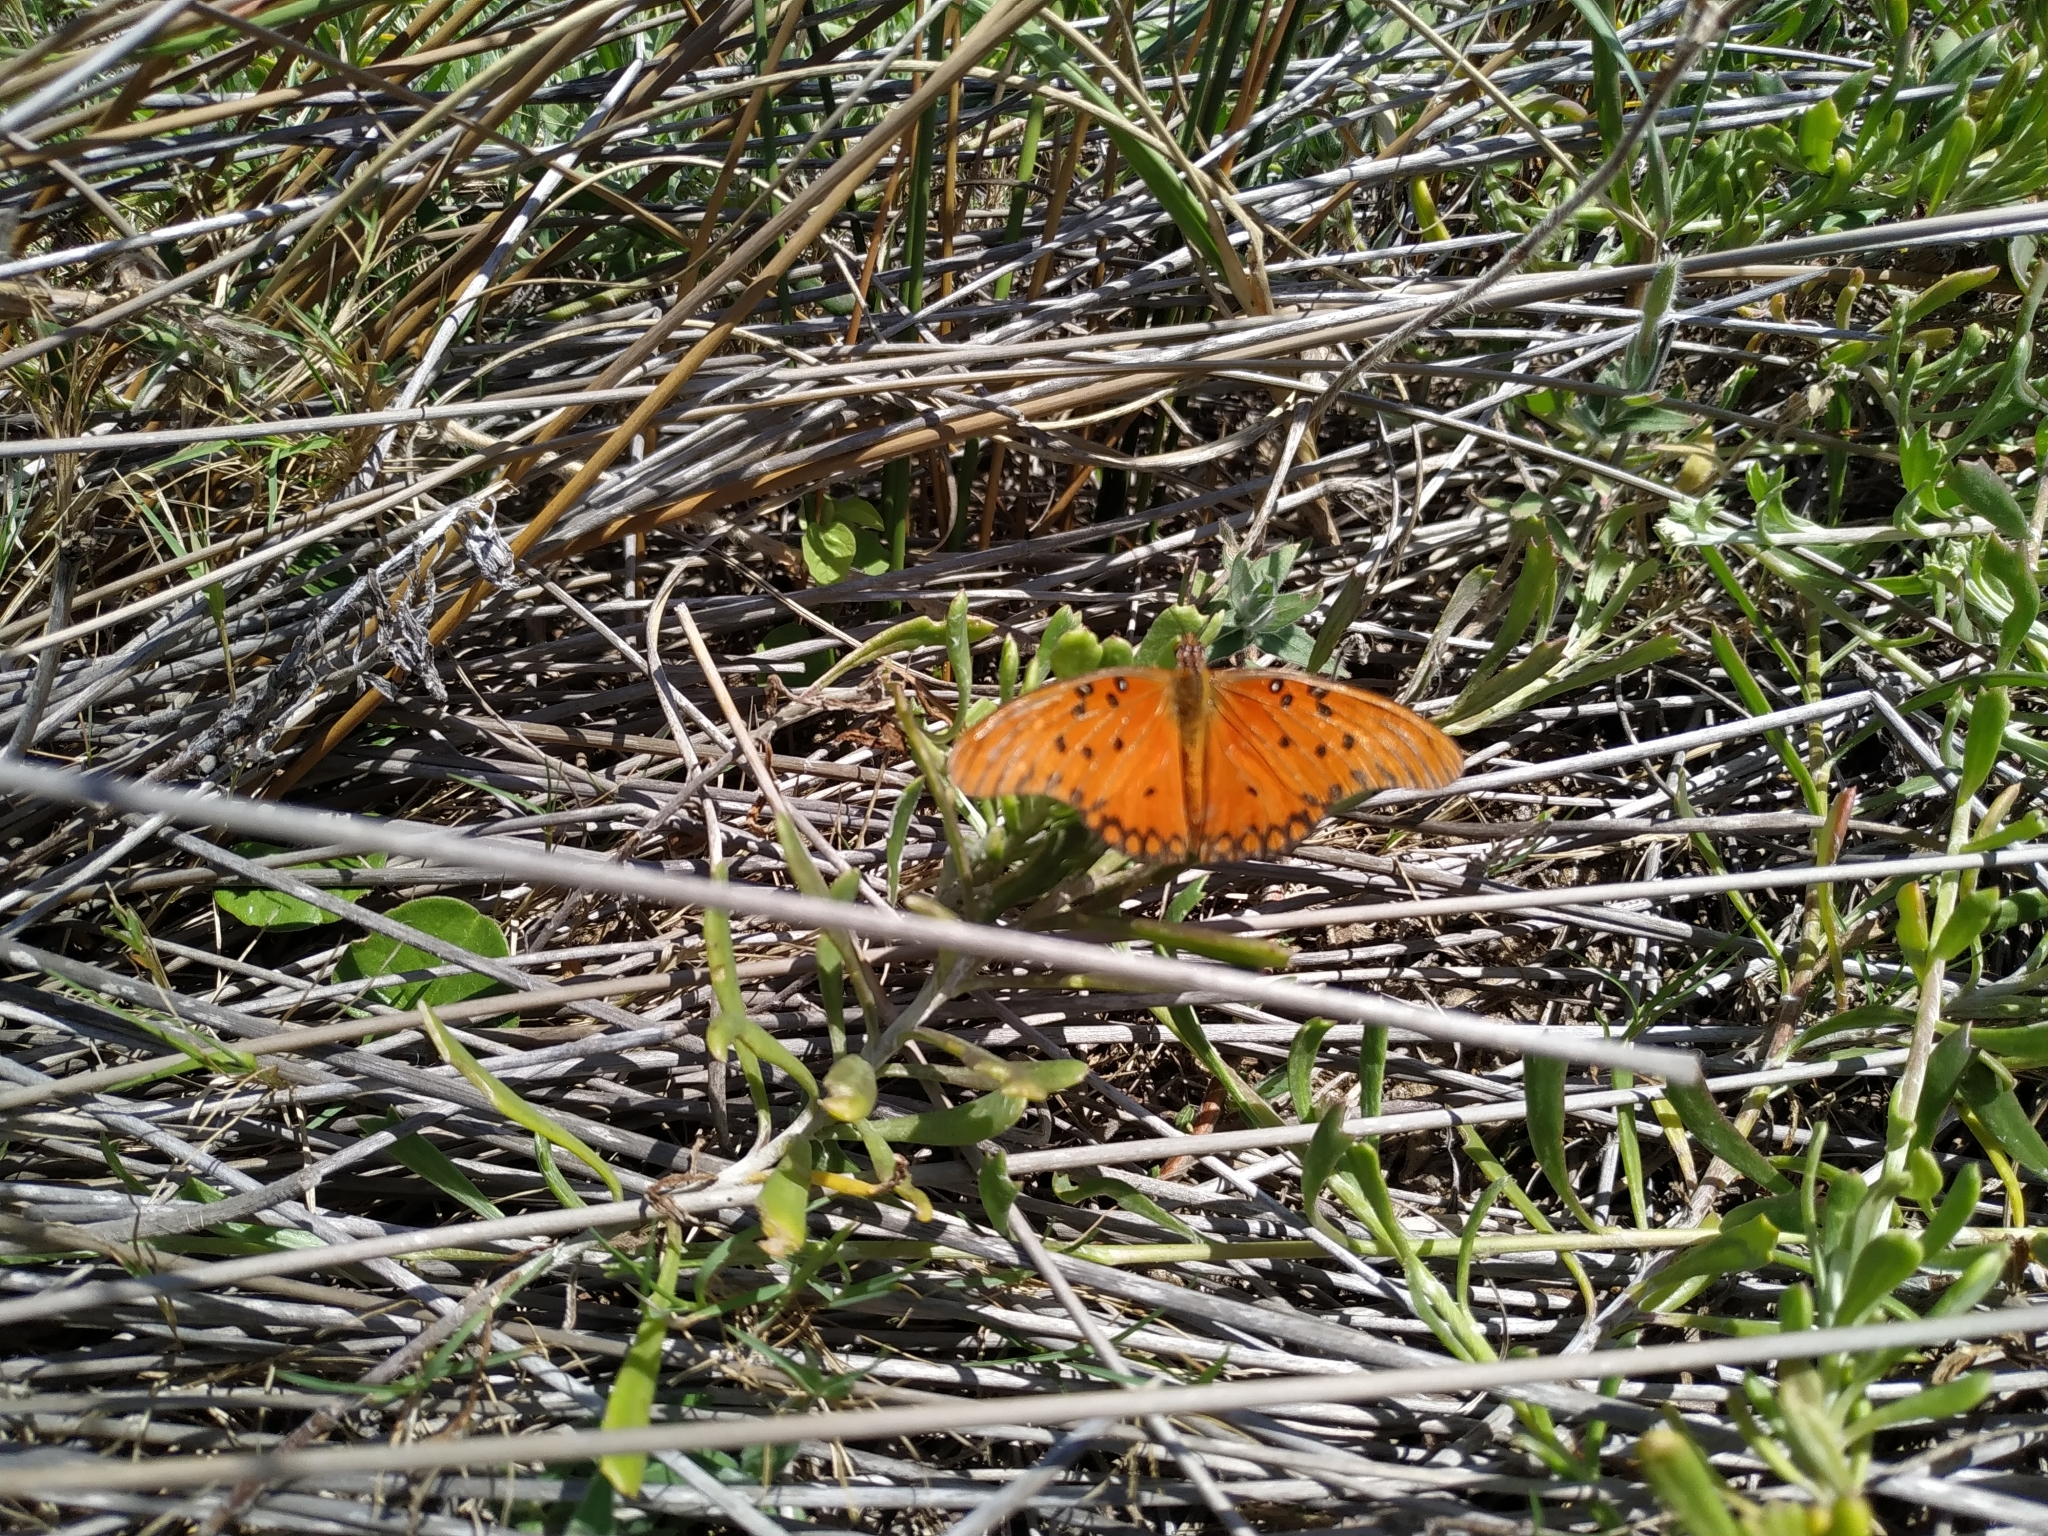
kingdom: Animalia
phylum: Arthropoda
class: Insecta
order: Lepidoptera
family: Nymphalidae
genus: Dione
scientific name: Dione vanillae
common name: Gulf fritillary
